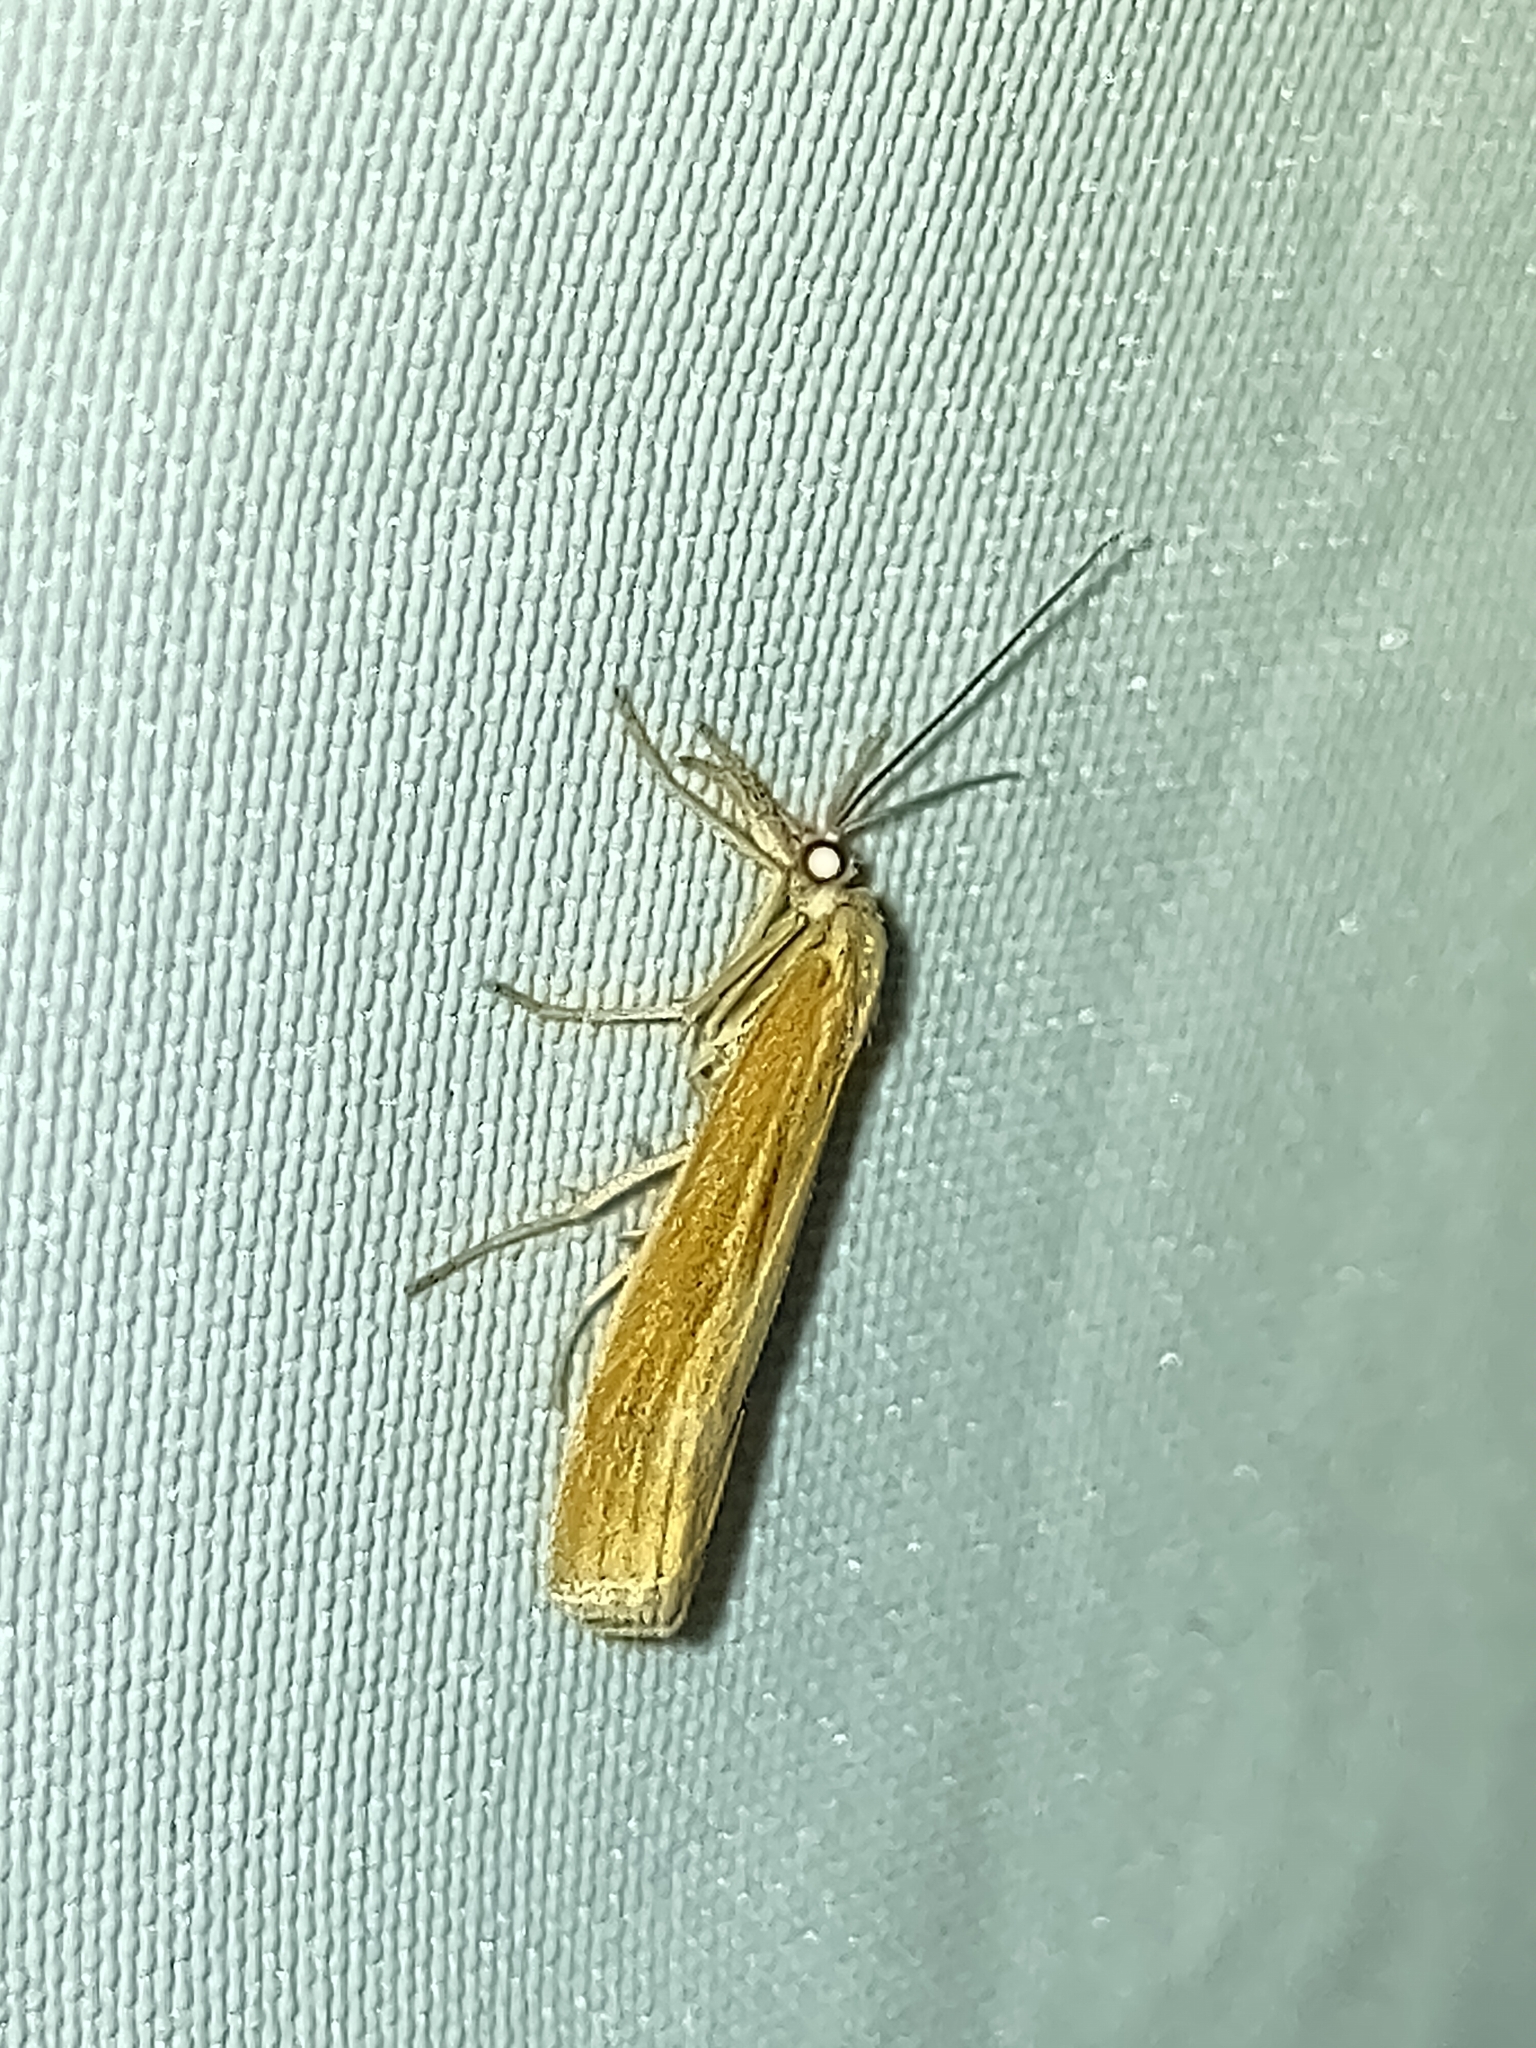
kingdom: Animalia
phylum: Arthropoda
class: Insecta
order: Lepidoptera
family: Crambidae
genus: Agriphila
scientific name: Agriphila tristellus
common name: Common grass-veneer
